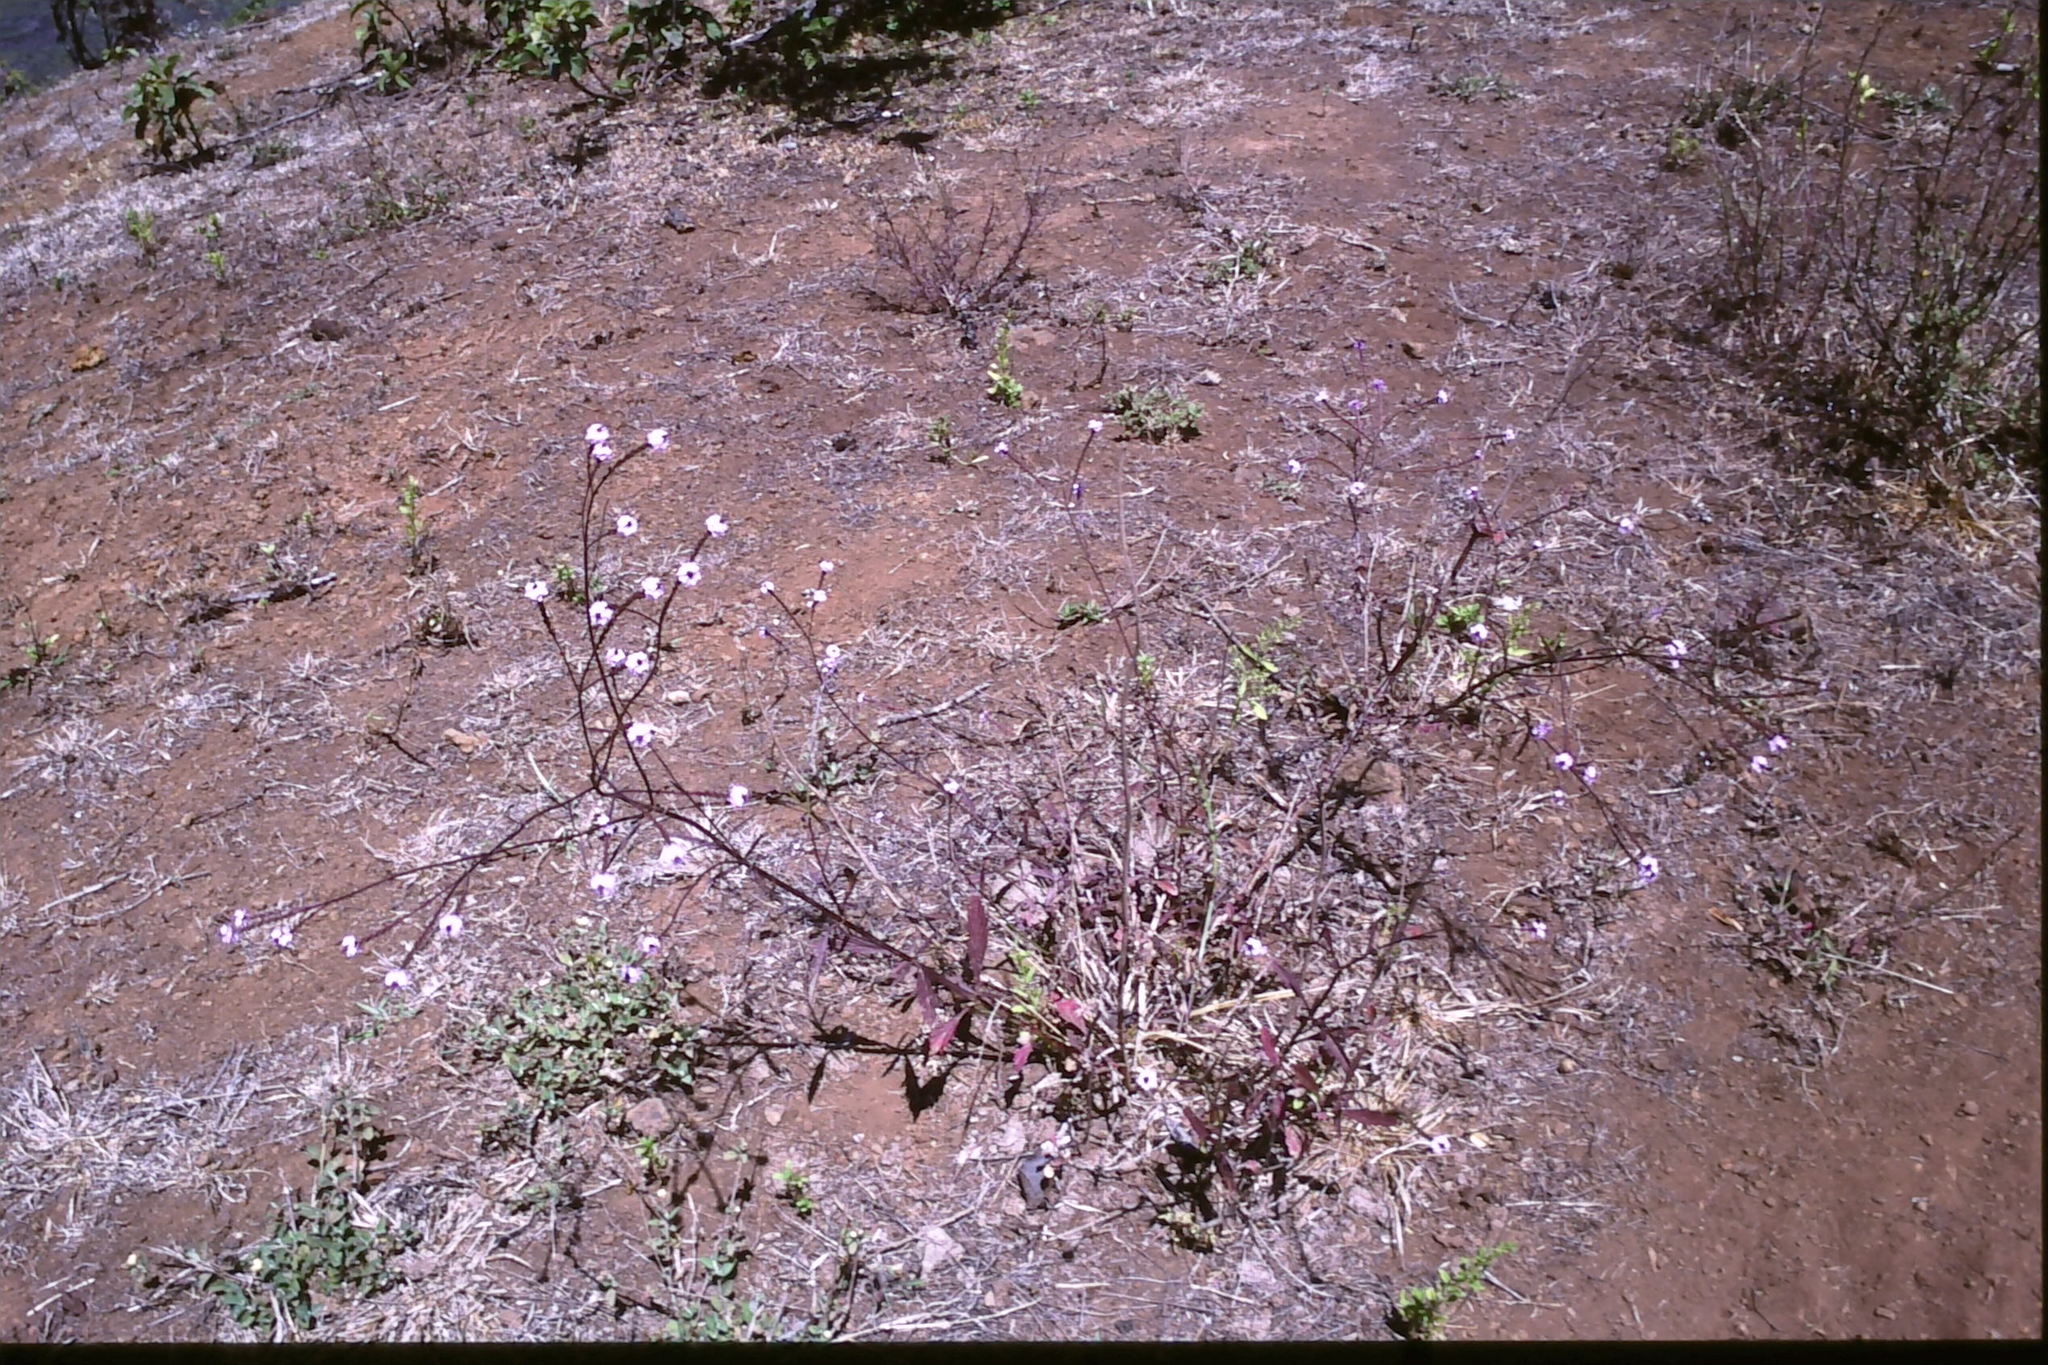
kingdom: Plantae
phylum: Tracheophyta
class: Magnoliopsida
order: Lamiales
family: Verbenaceae
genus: Verbena
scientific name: Verbena brasiliensis
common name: Brazilian vervain
